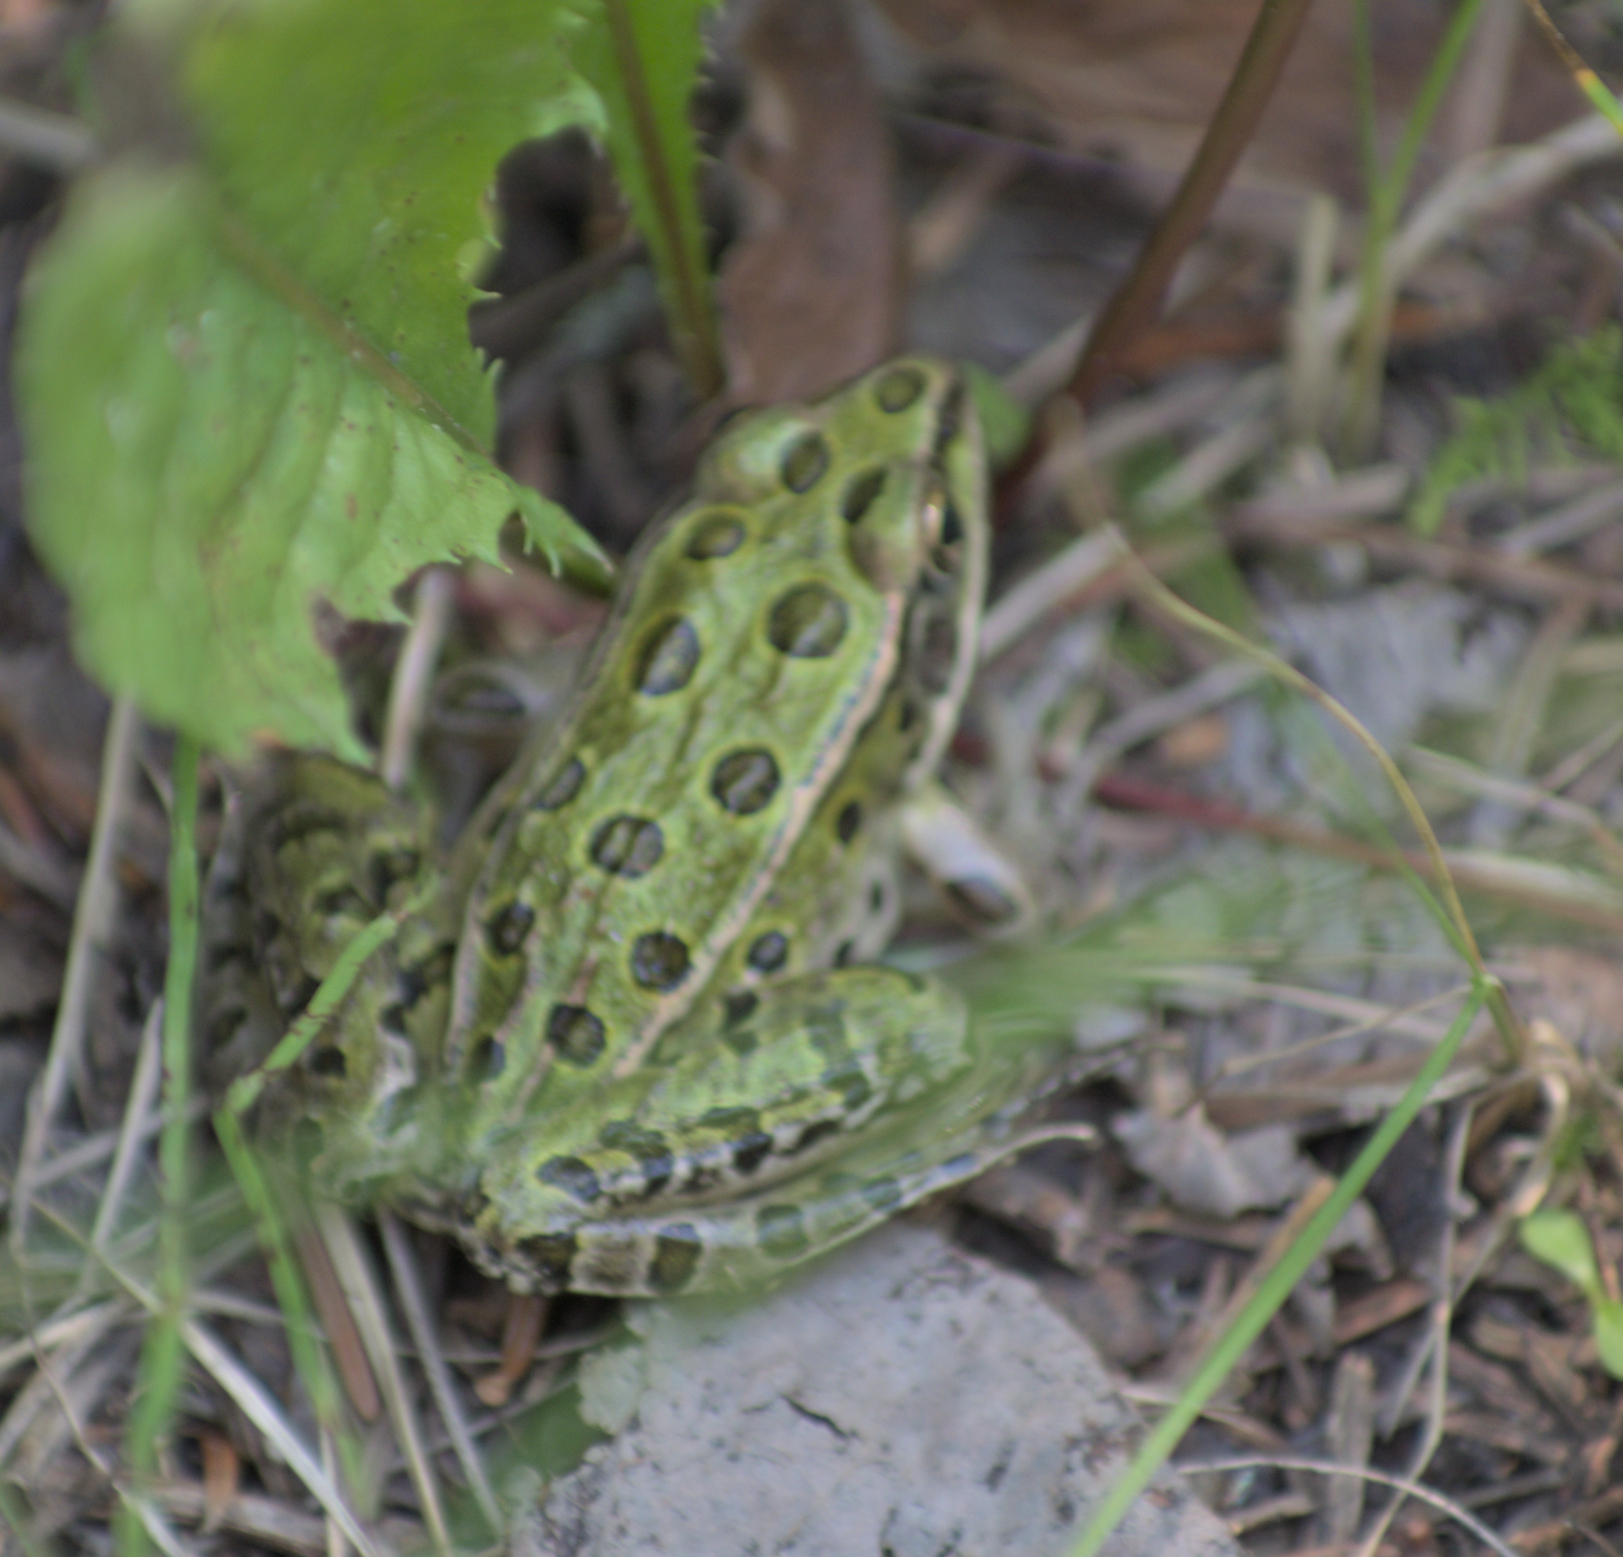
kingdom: Animalia
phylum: Chordata
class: Amphibia
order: Anura
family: Ranidae
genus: Lithobates
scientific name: Lithobates pipiens
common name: Northern leopard frog
